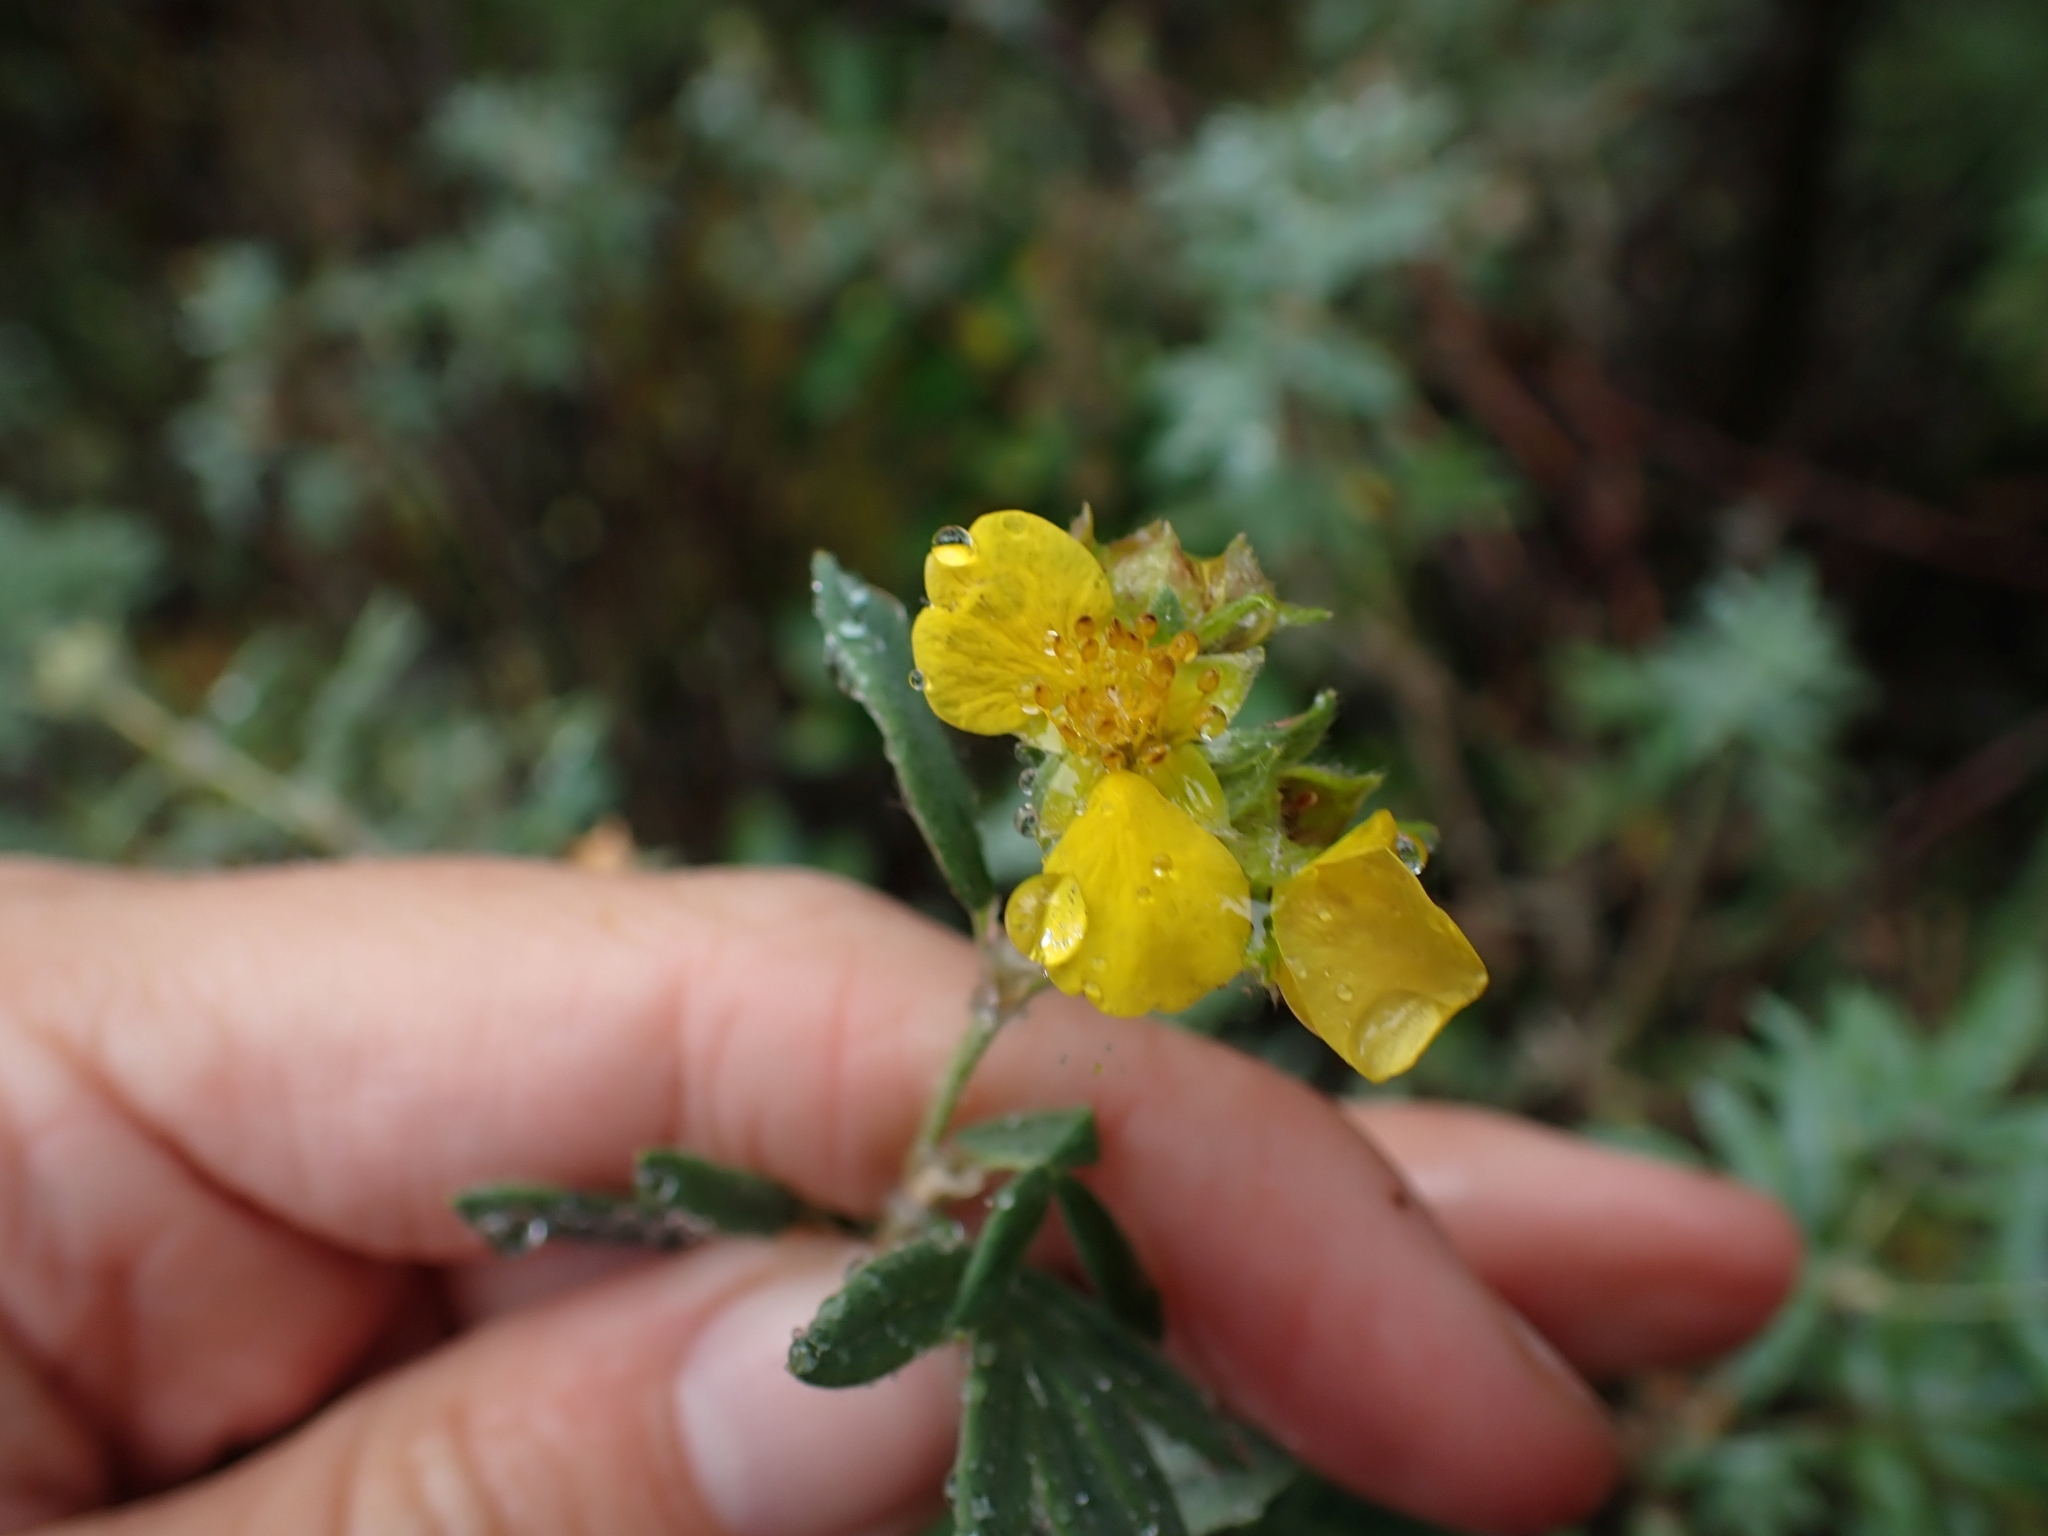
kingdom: Plantae
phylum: Tracheophyta
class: Magnoliopsida
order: Rosales
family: Rosaceae
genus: Dasiphora
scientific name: Dasiphora fruticosa
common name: Shrubby cinquefoil
